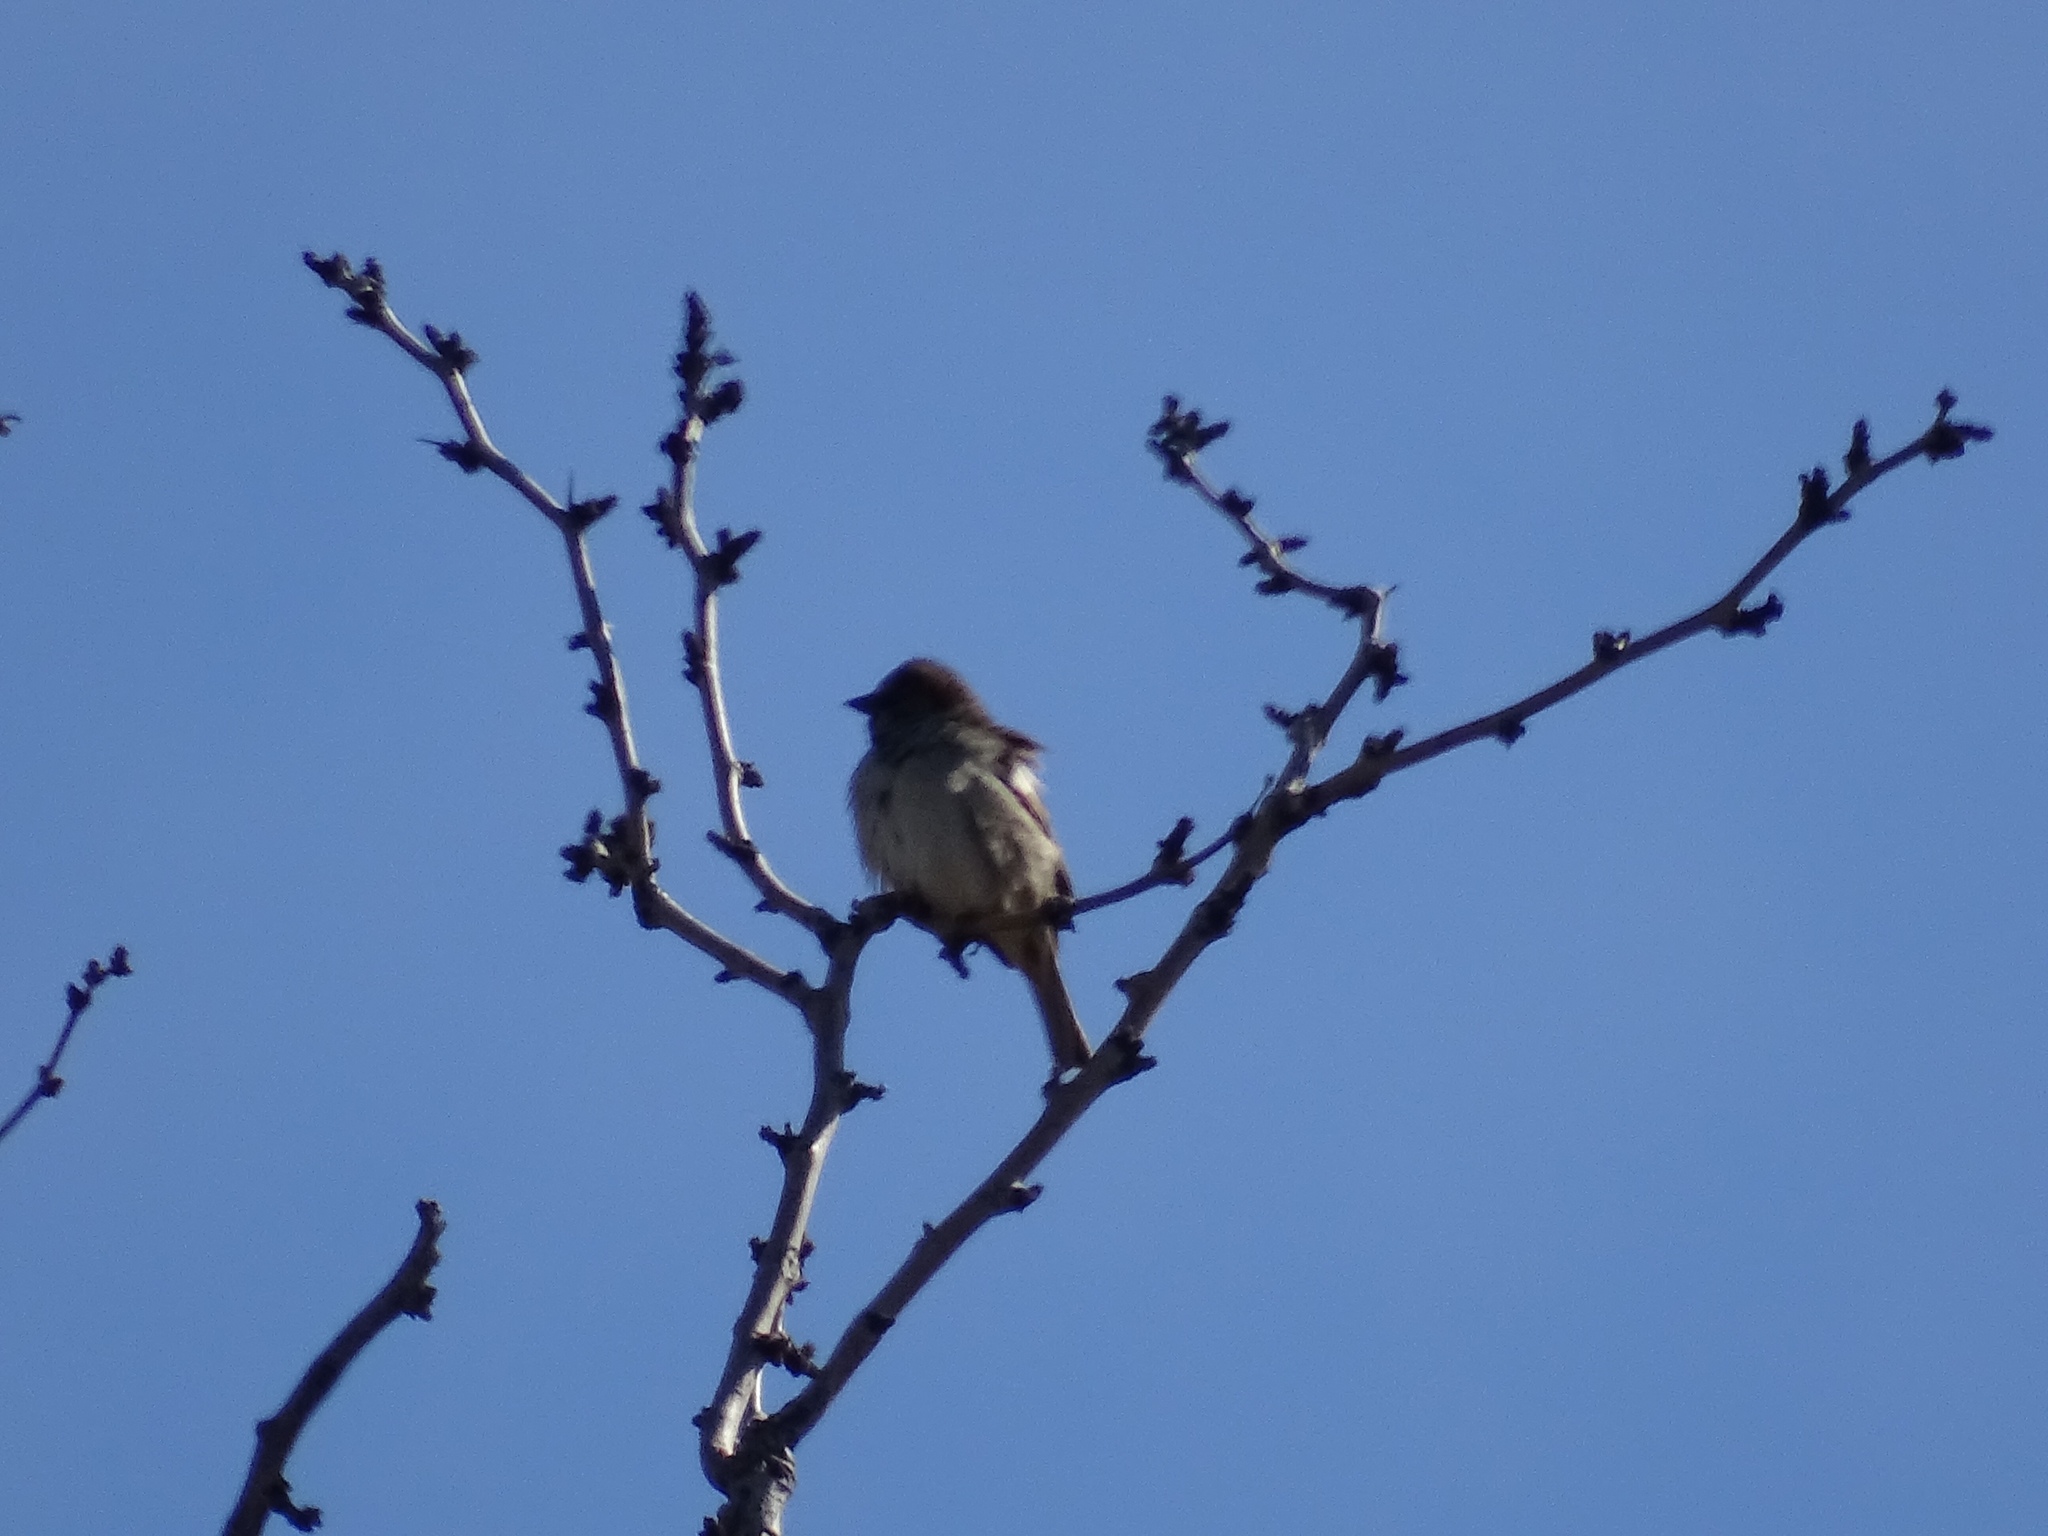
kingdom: Animalia
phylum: Chordata
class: Aves
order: Passeriformes
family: Passeridae
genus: Passer
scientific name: Passer domesticus
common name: House sparrow
